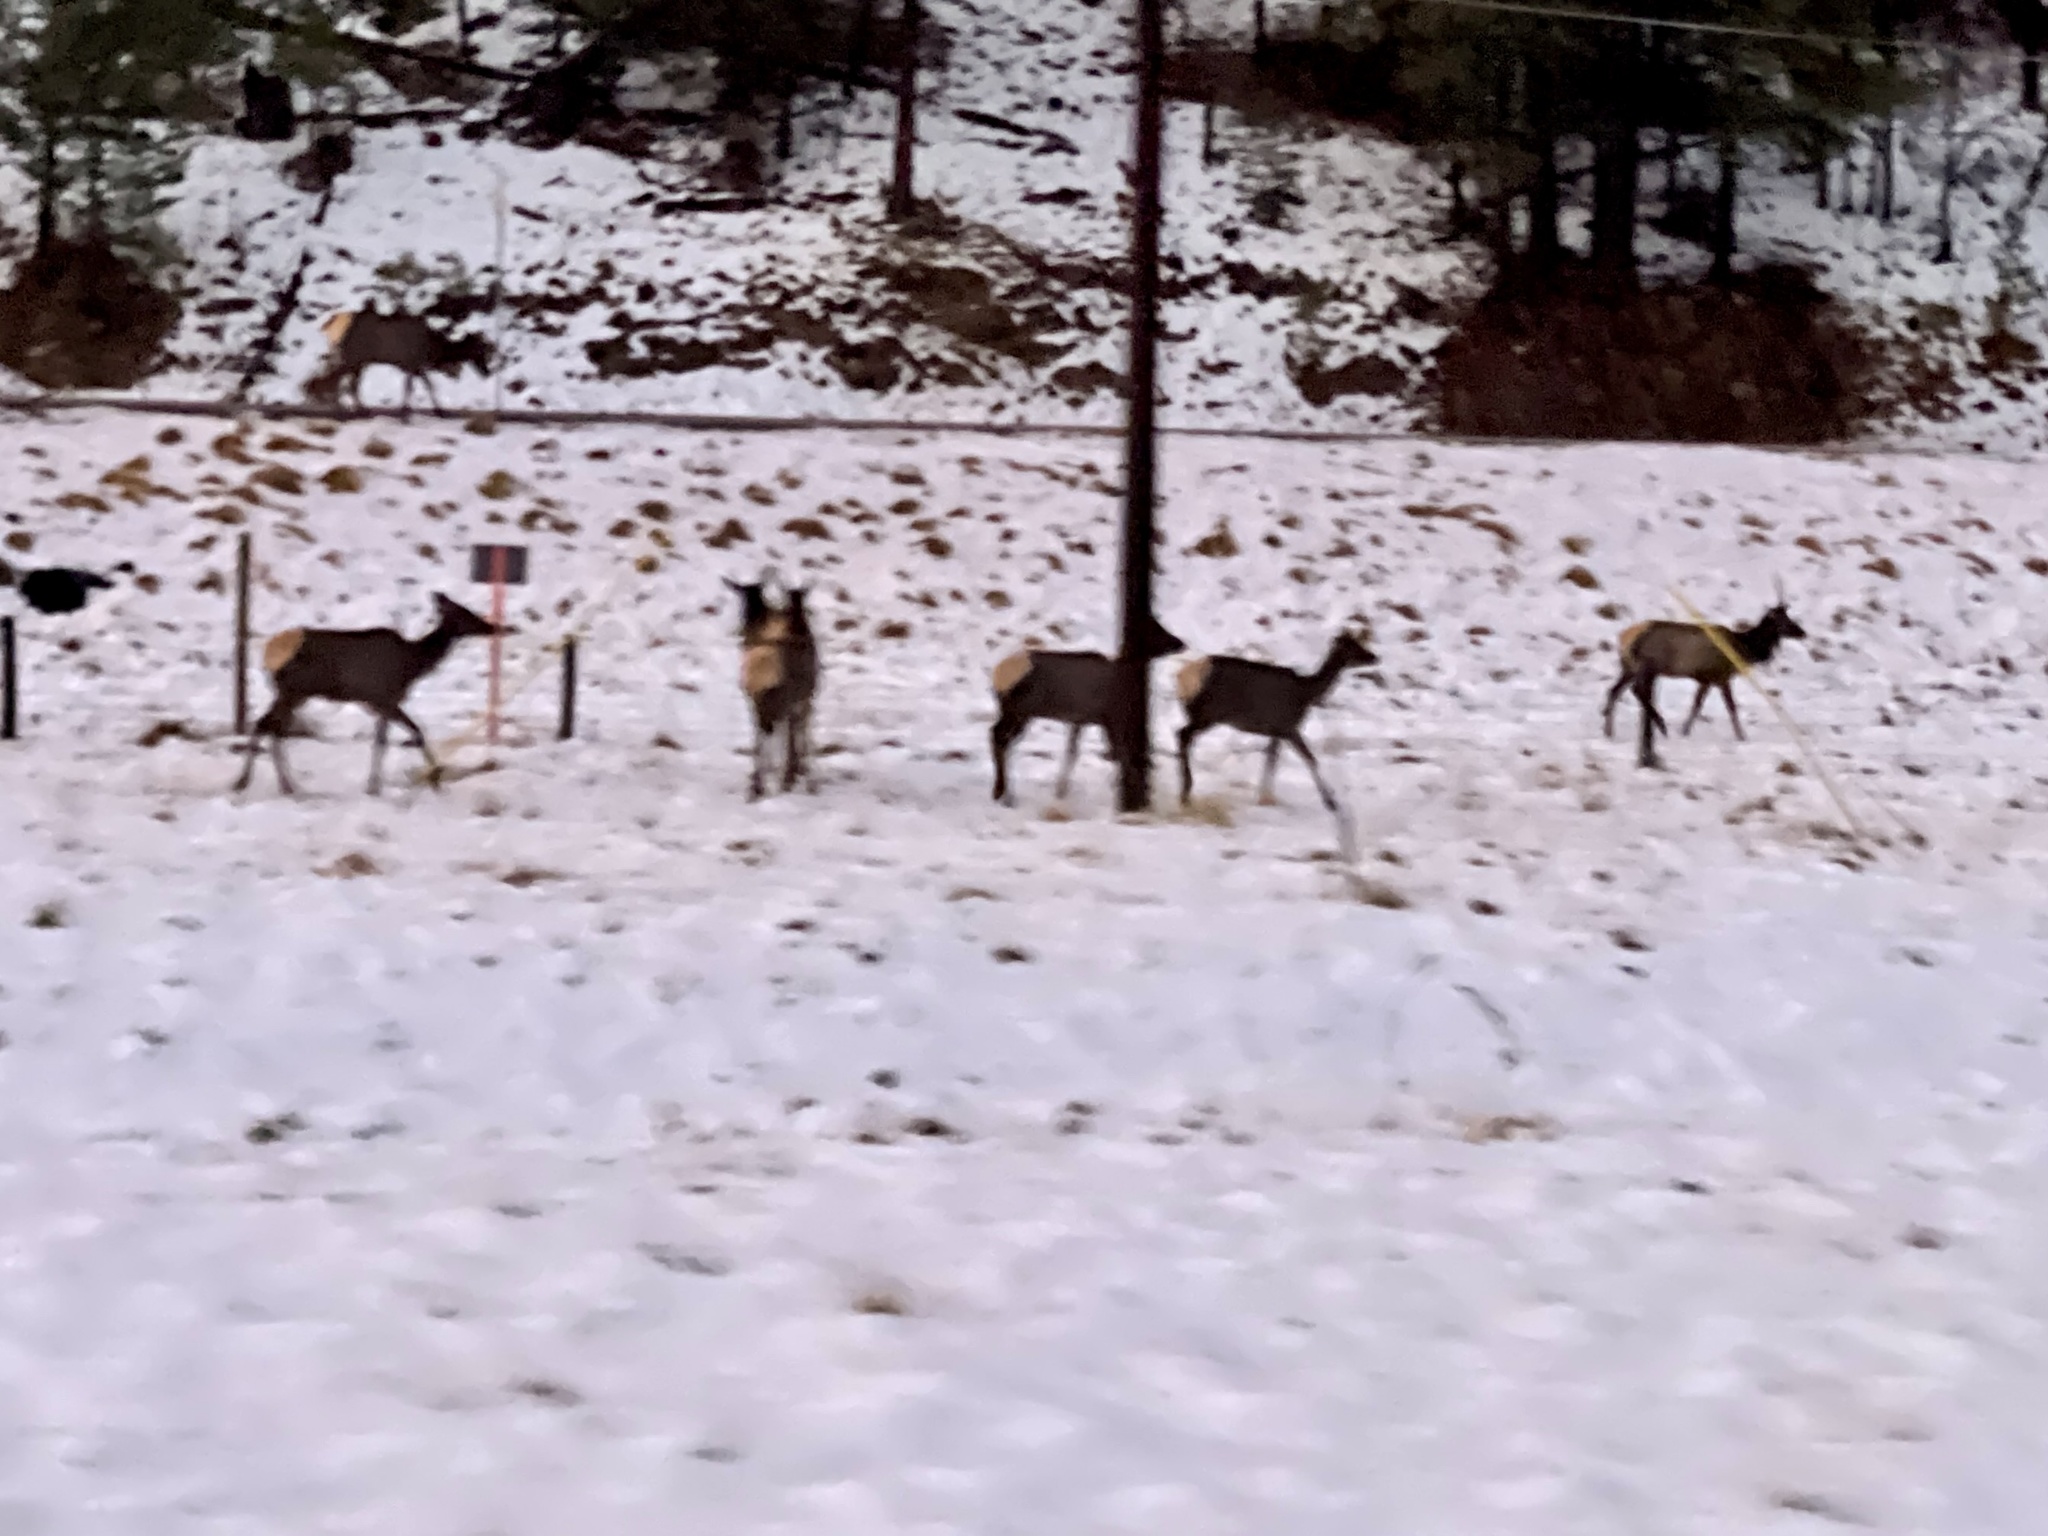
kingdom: Animalia
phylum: Chordata
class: Mammalia
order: Artiodactyla
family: Cervidae
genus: Cervus
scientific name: Cervus elaphus
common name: Red deer
